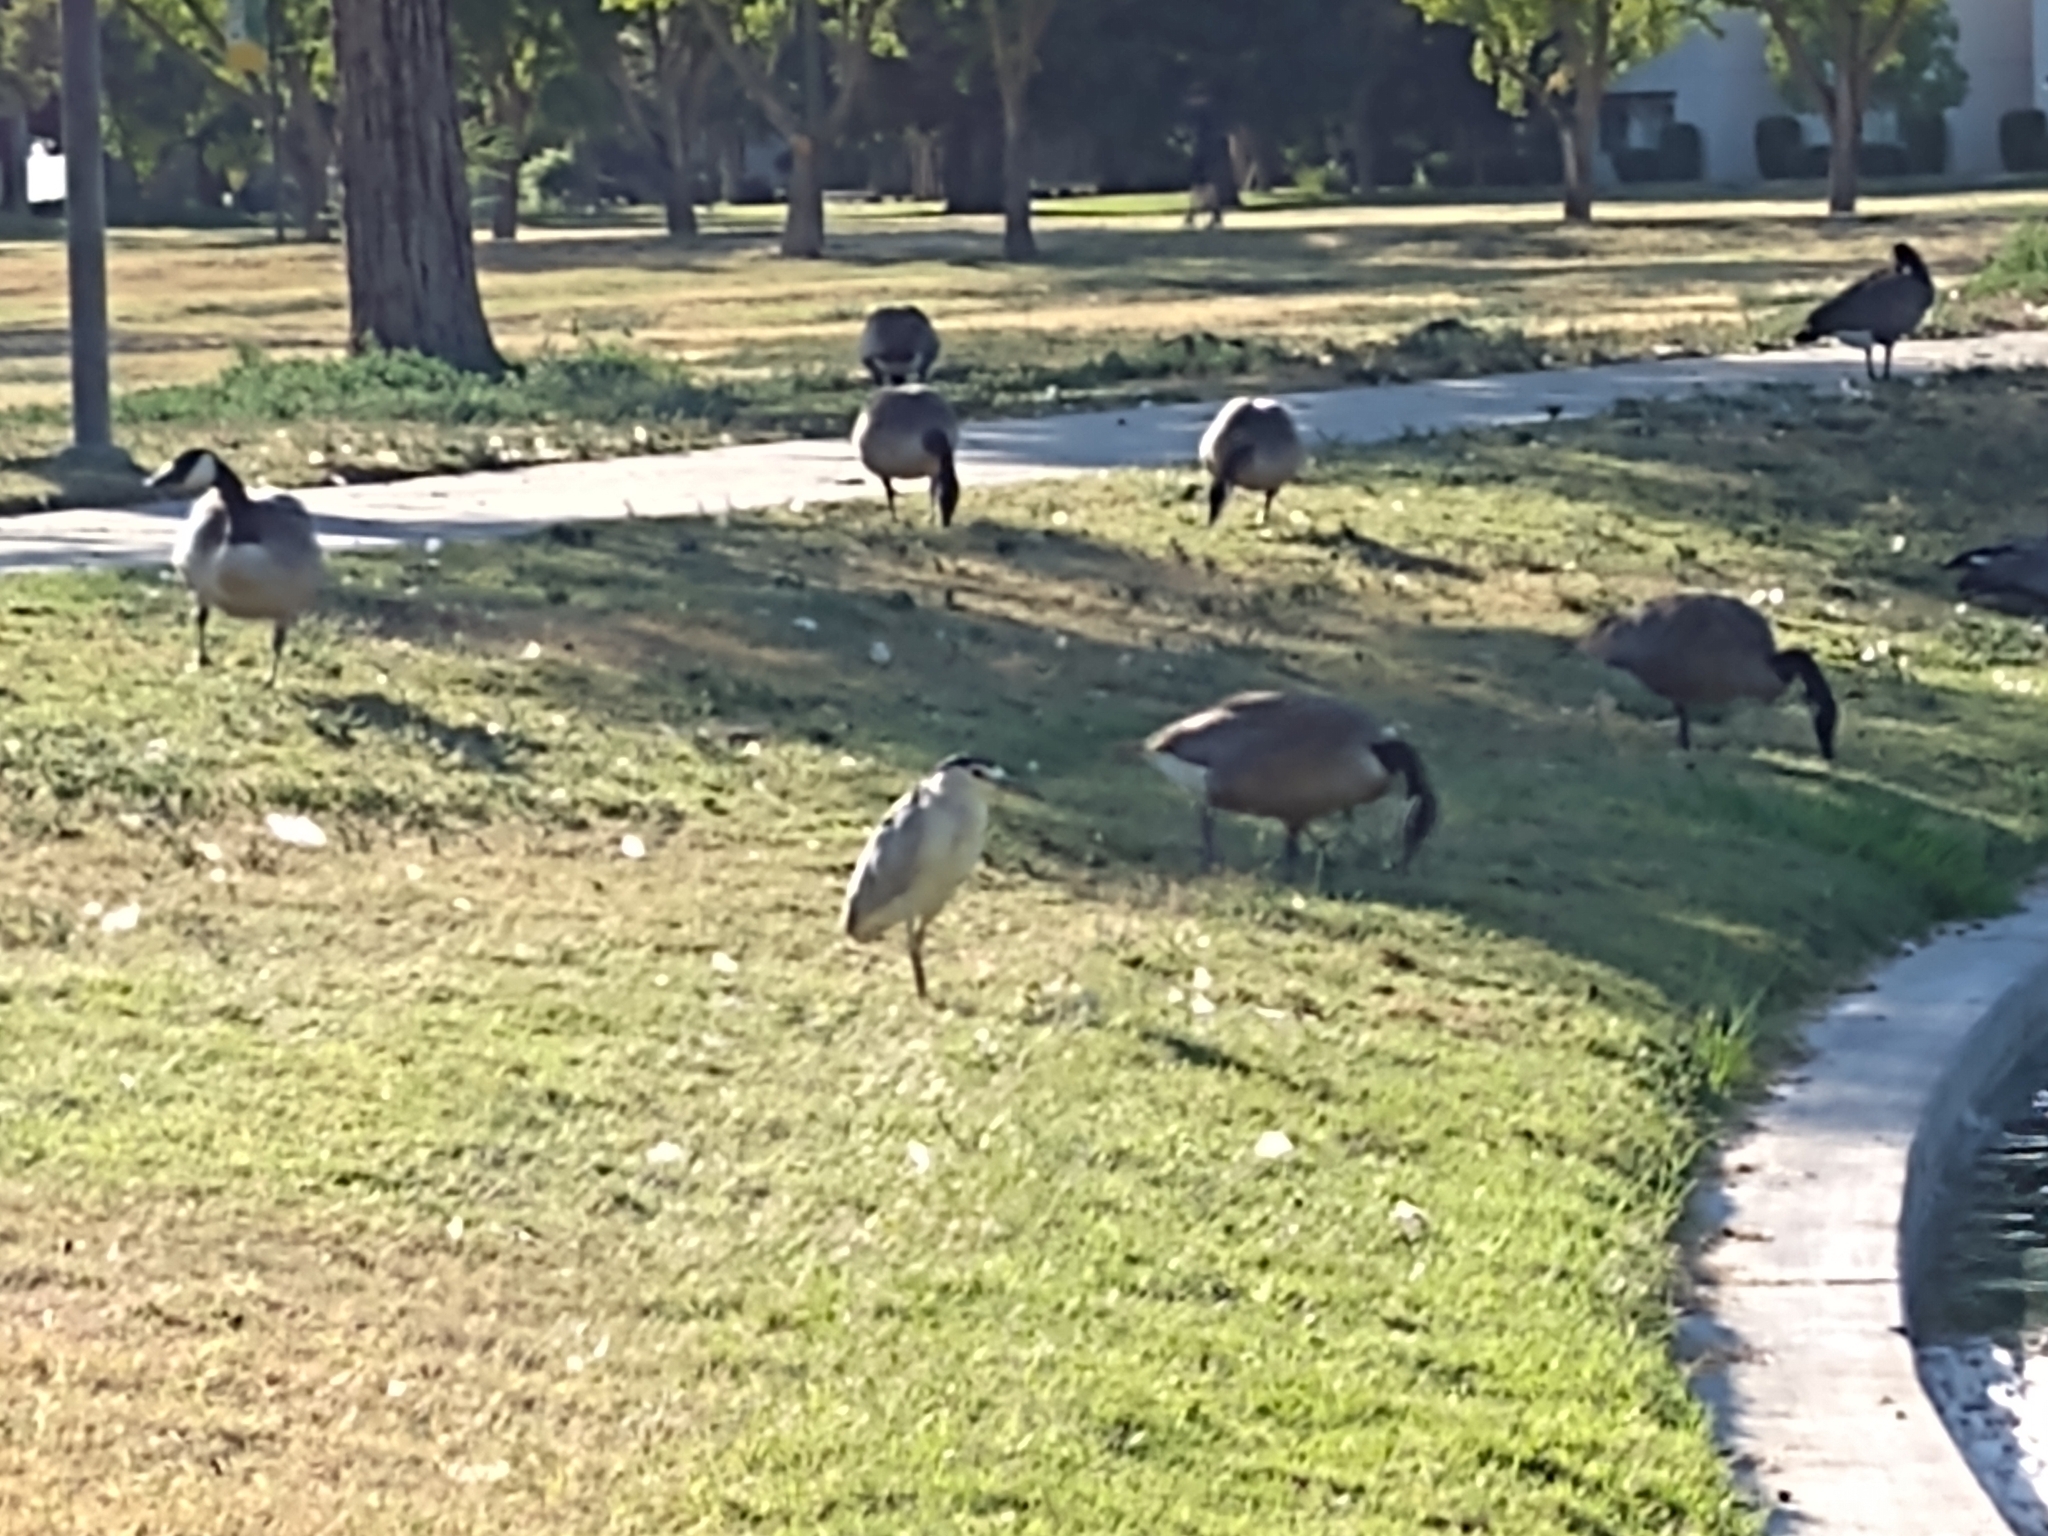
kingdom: Animalia
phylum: Chordata
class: Aves
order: Pelecaniformes
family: Ardeidae
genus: Nycticorax
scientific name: Nycticorax nycticorax
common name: Black-crowned night heron
